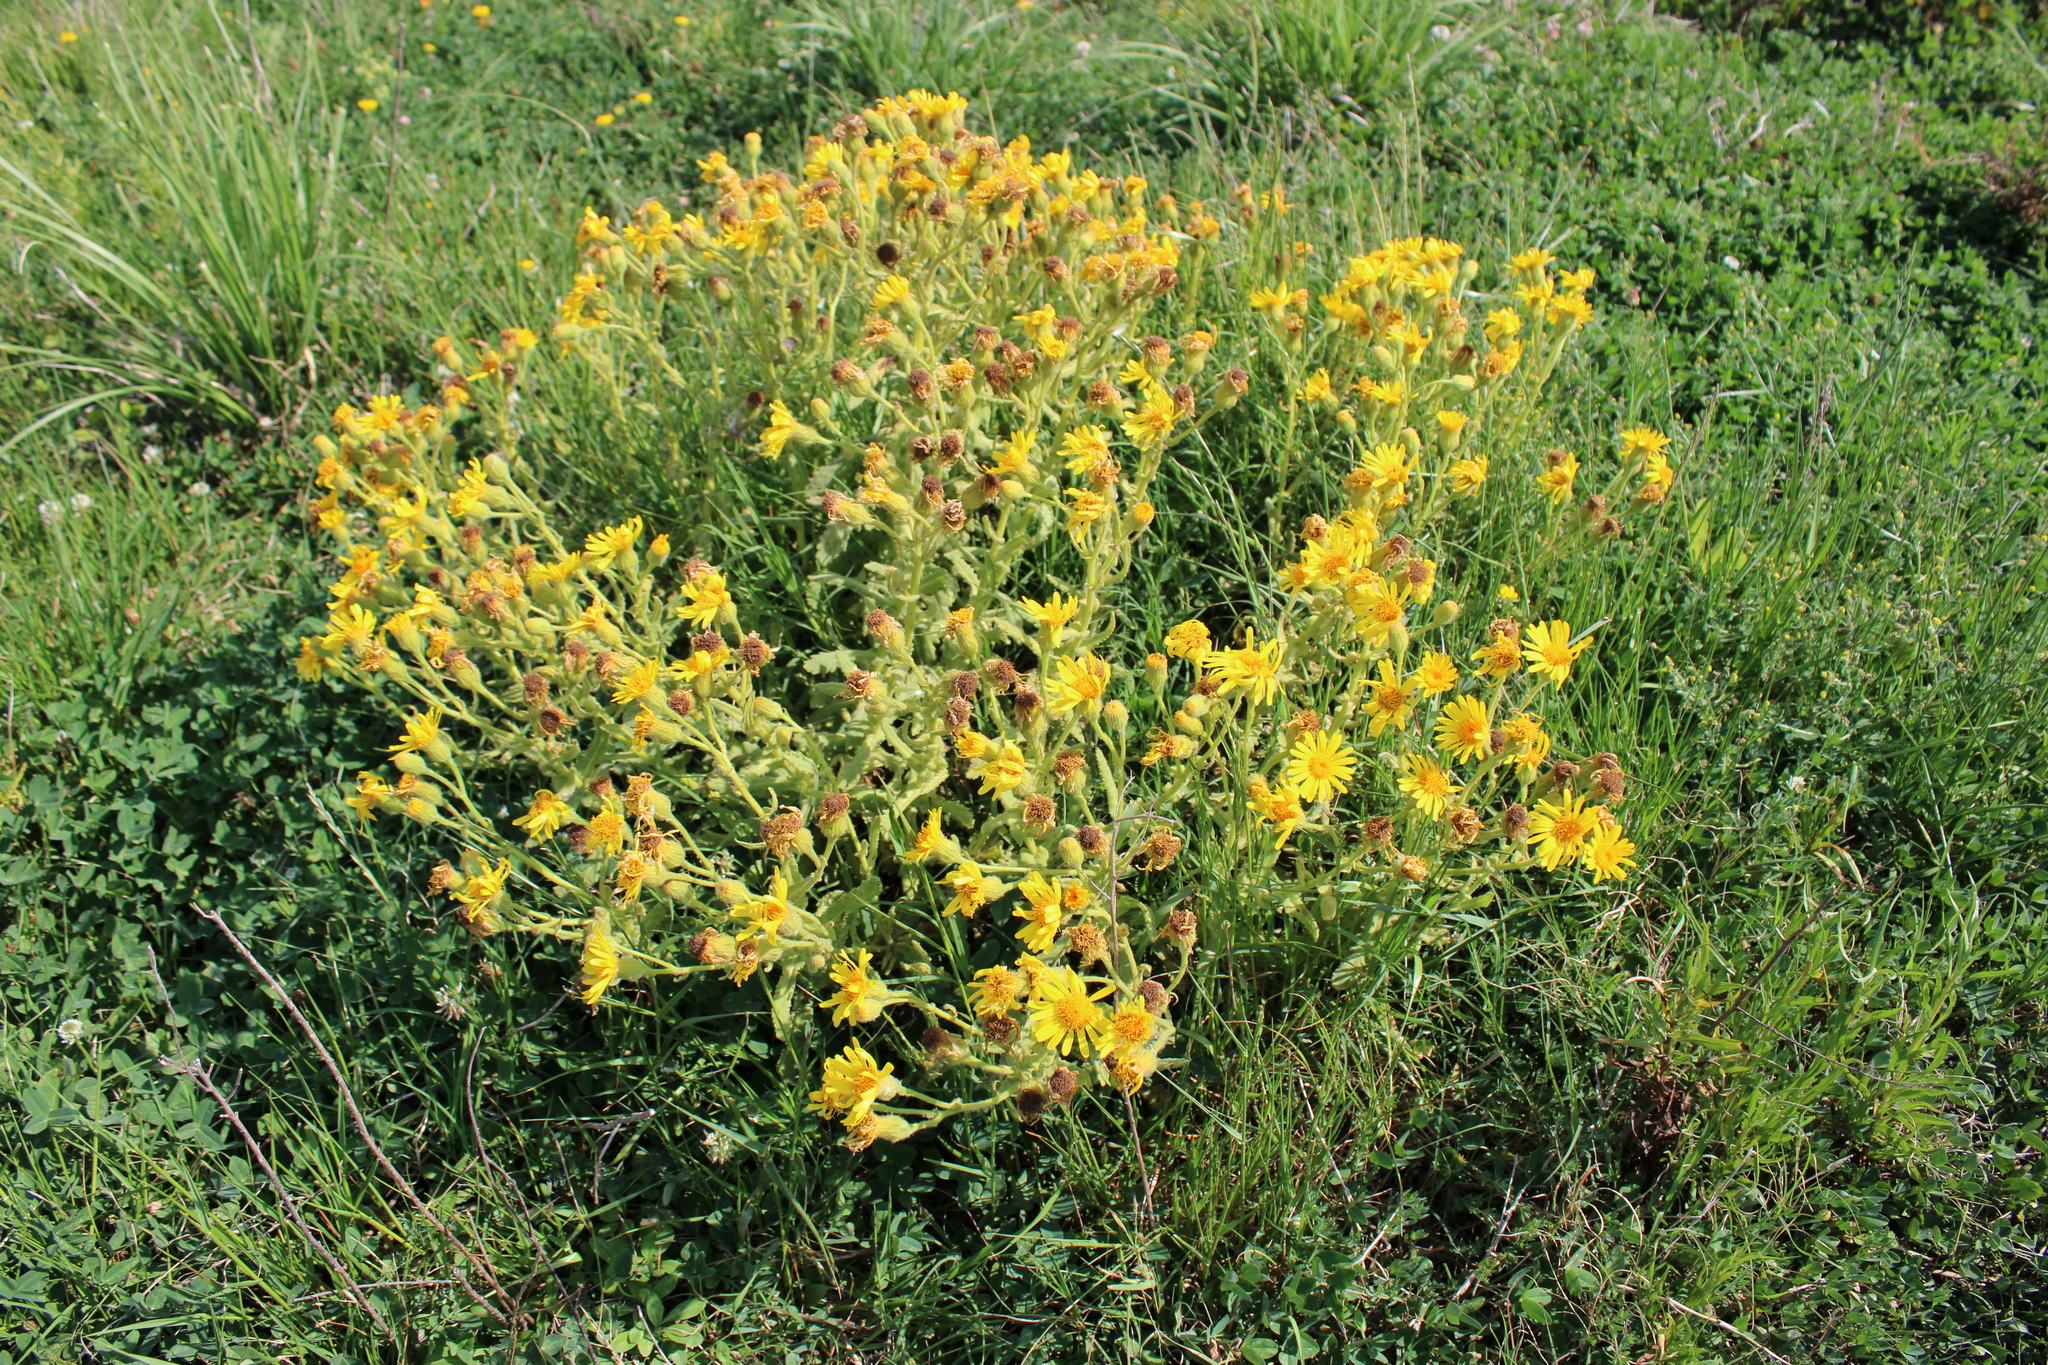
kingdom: Plantae
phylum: Tracheophyta
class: Magnoliopsida
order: Asterales
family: Asteraceae
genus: Senecio
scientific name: Senecio selloi
